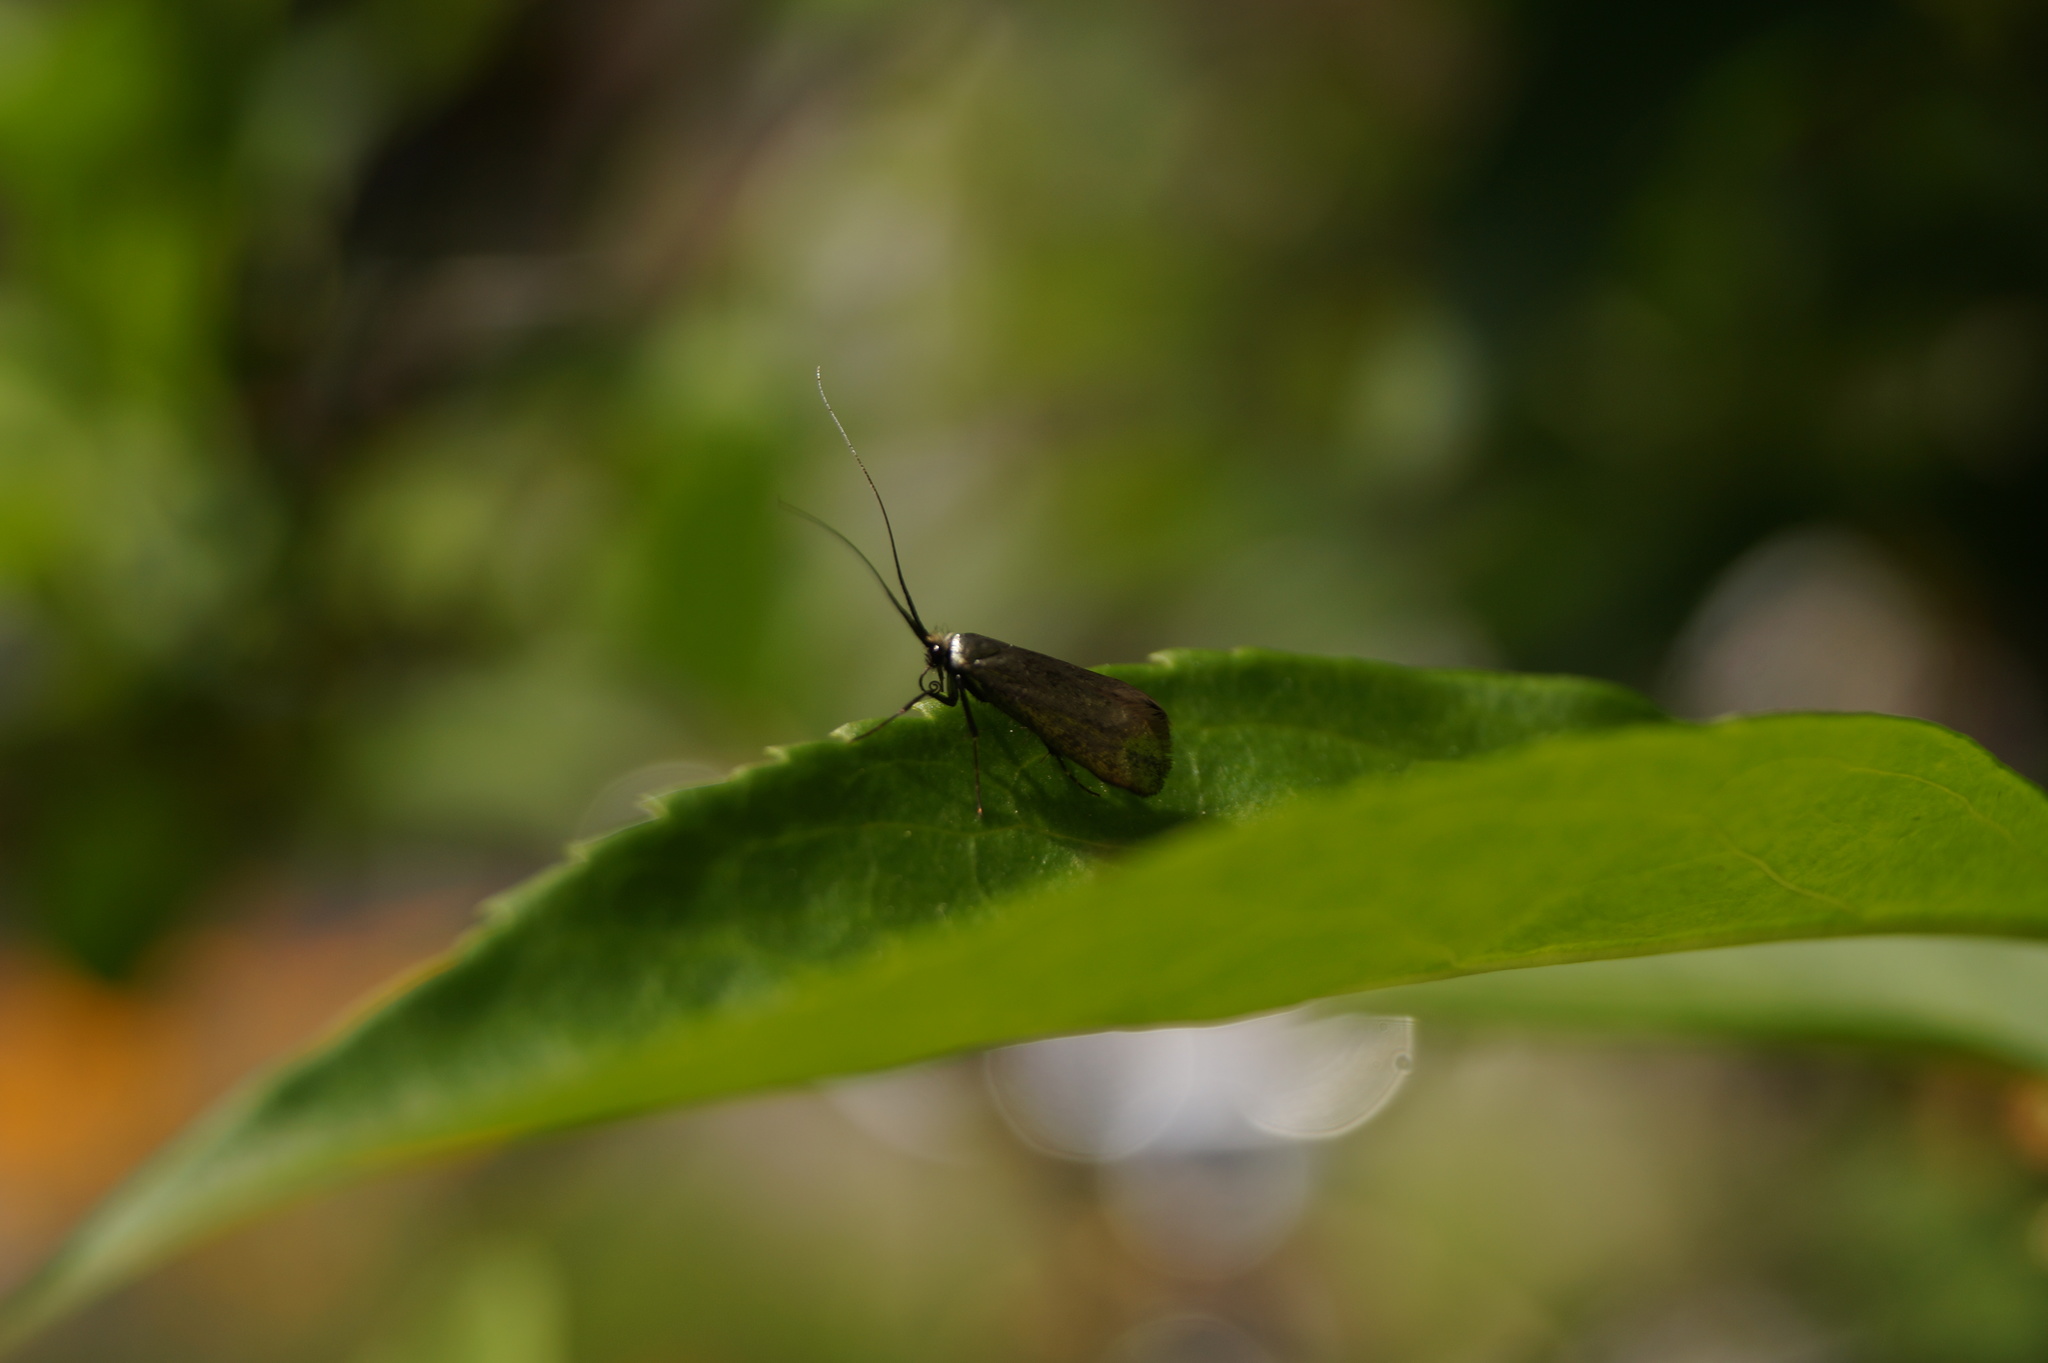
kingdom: Animalia
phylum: Arthropoda
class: Insecta
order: Lepidoptera
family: Adelidae
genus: Adela
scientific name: Adela viridella
